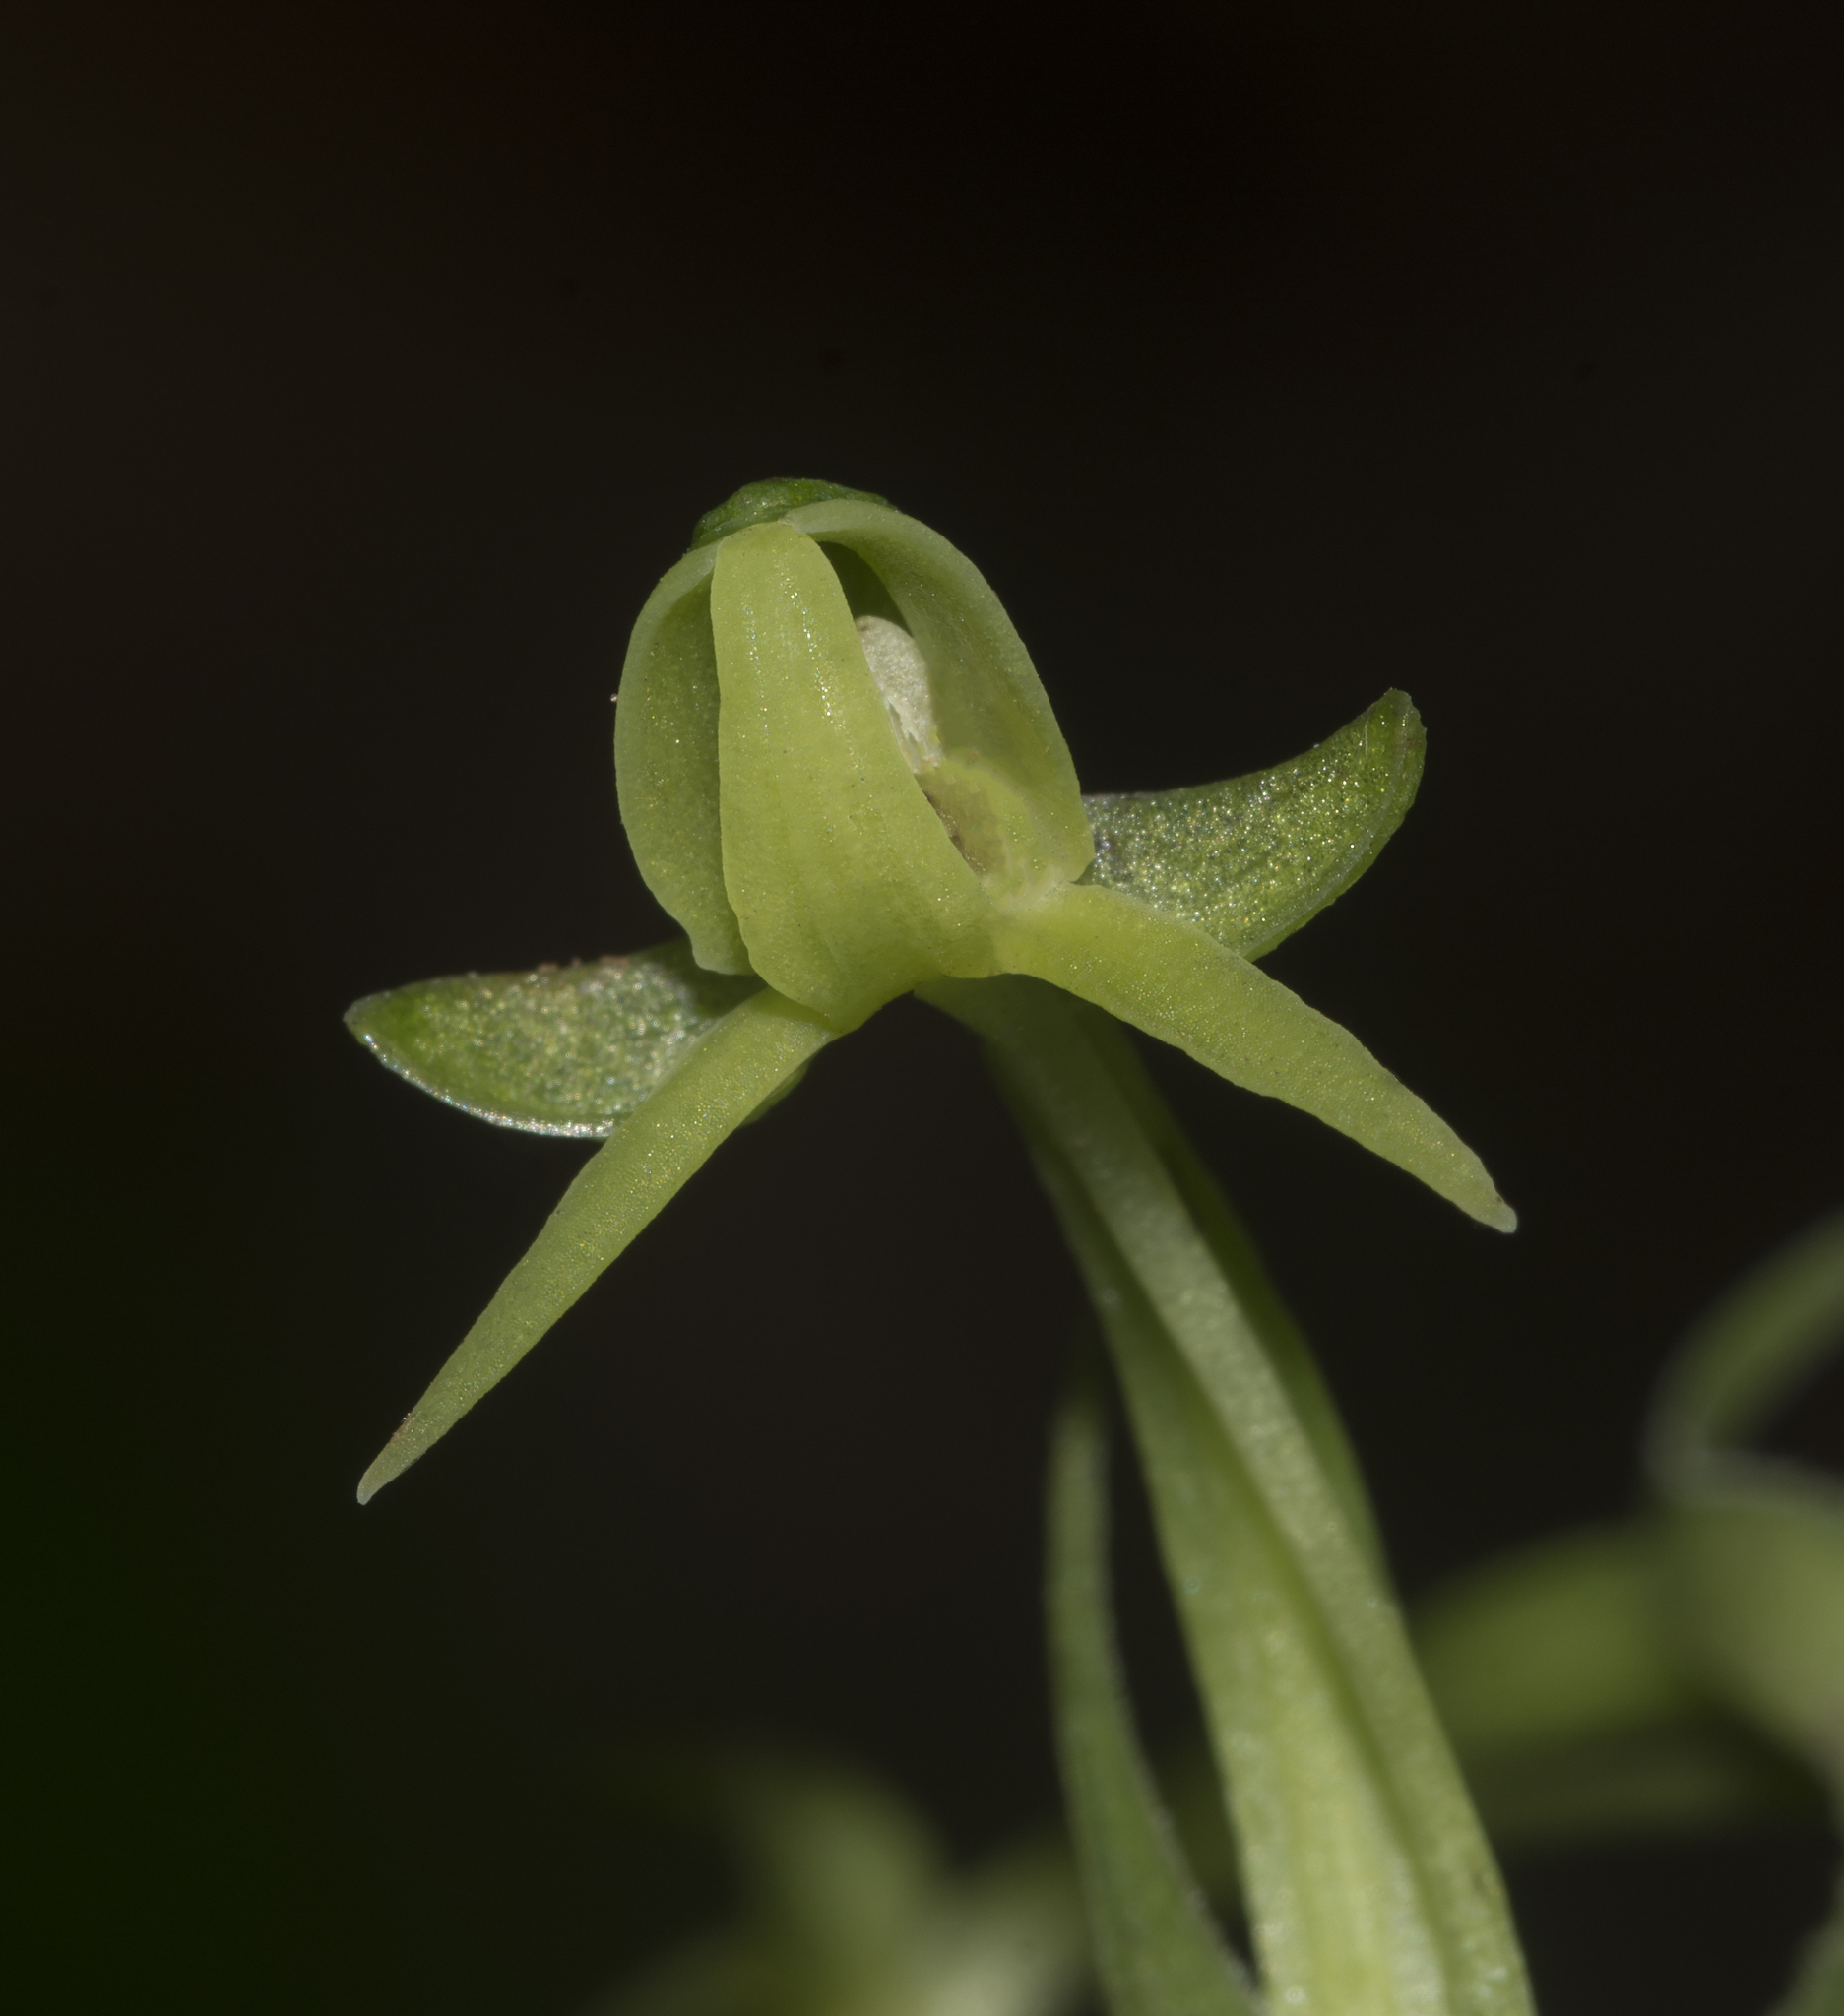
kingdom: Plantae
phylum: Tracheophyta
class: Liliopsida
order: Asparagales
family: Orchidaceae
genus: Habenaria
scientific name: Habenaria furcifera
